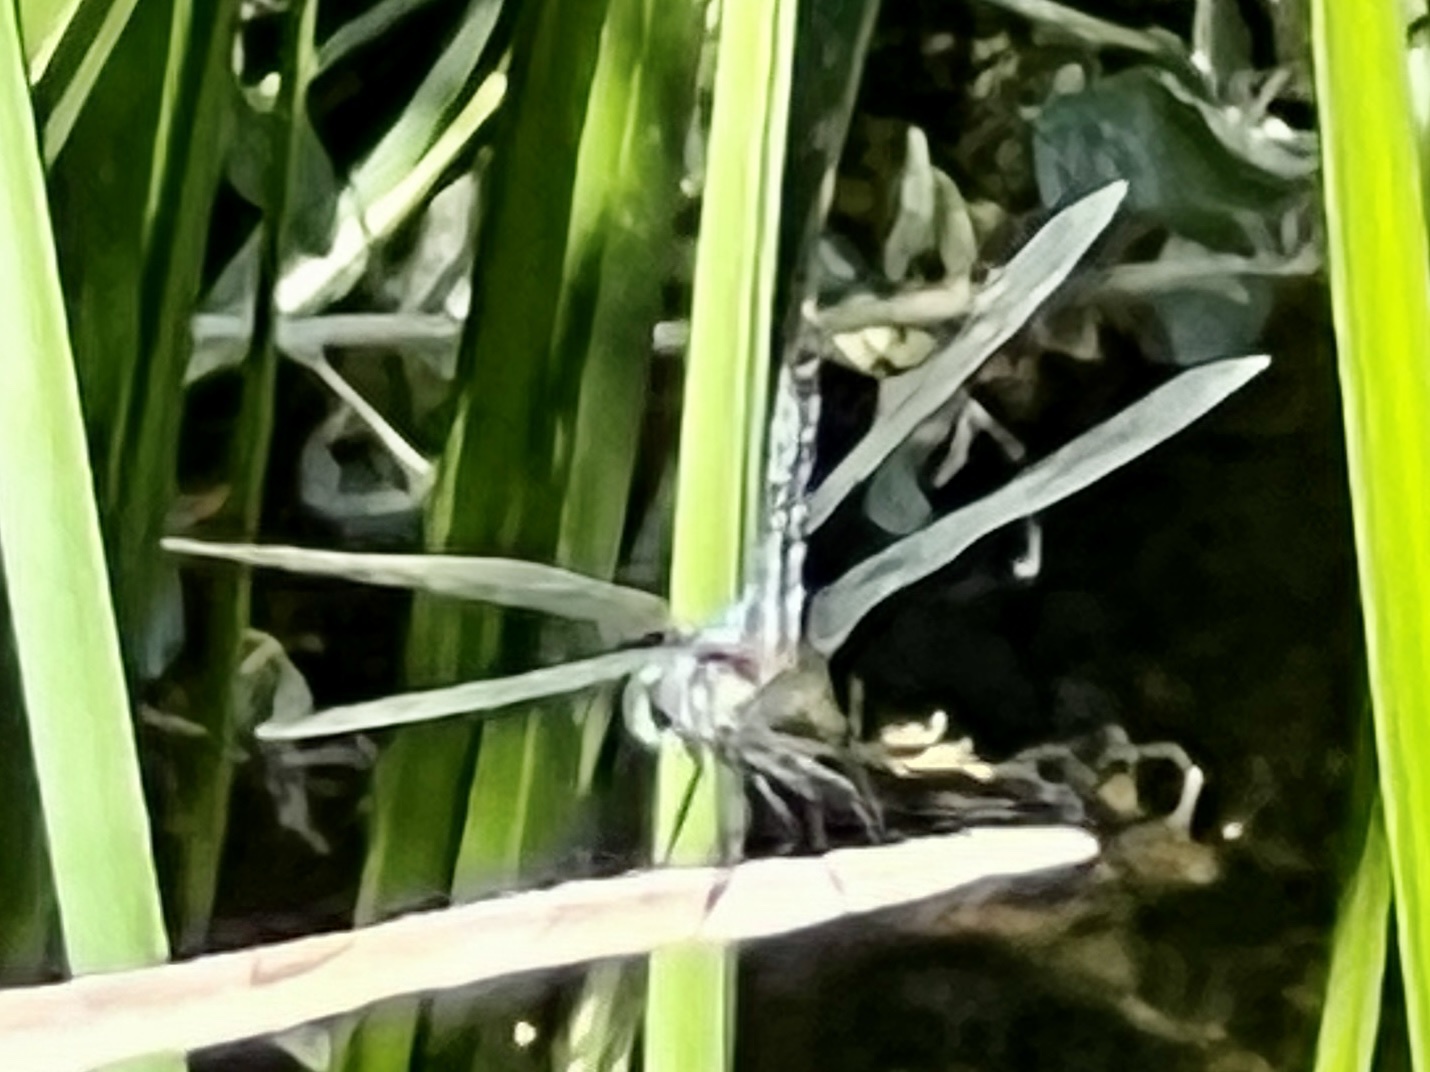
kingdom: Animalia
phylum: Arthropoda
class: Insecta
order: Odonata
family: Libellulidae
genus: Pachydiplax
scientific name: Pachydiplax longipennis
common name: Blue dasher
